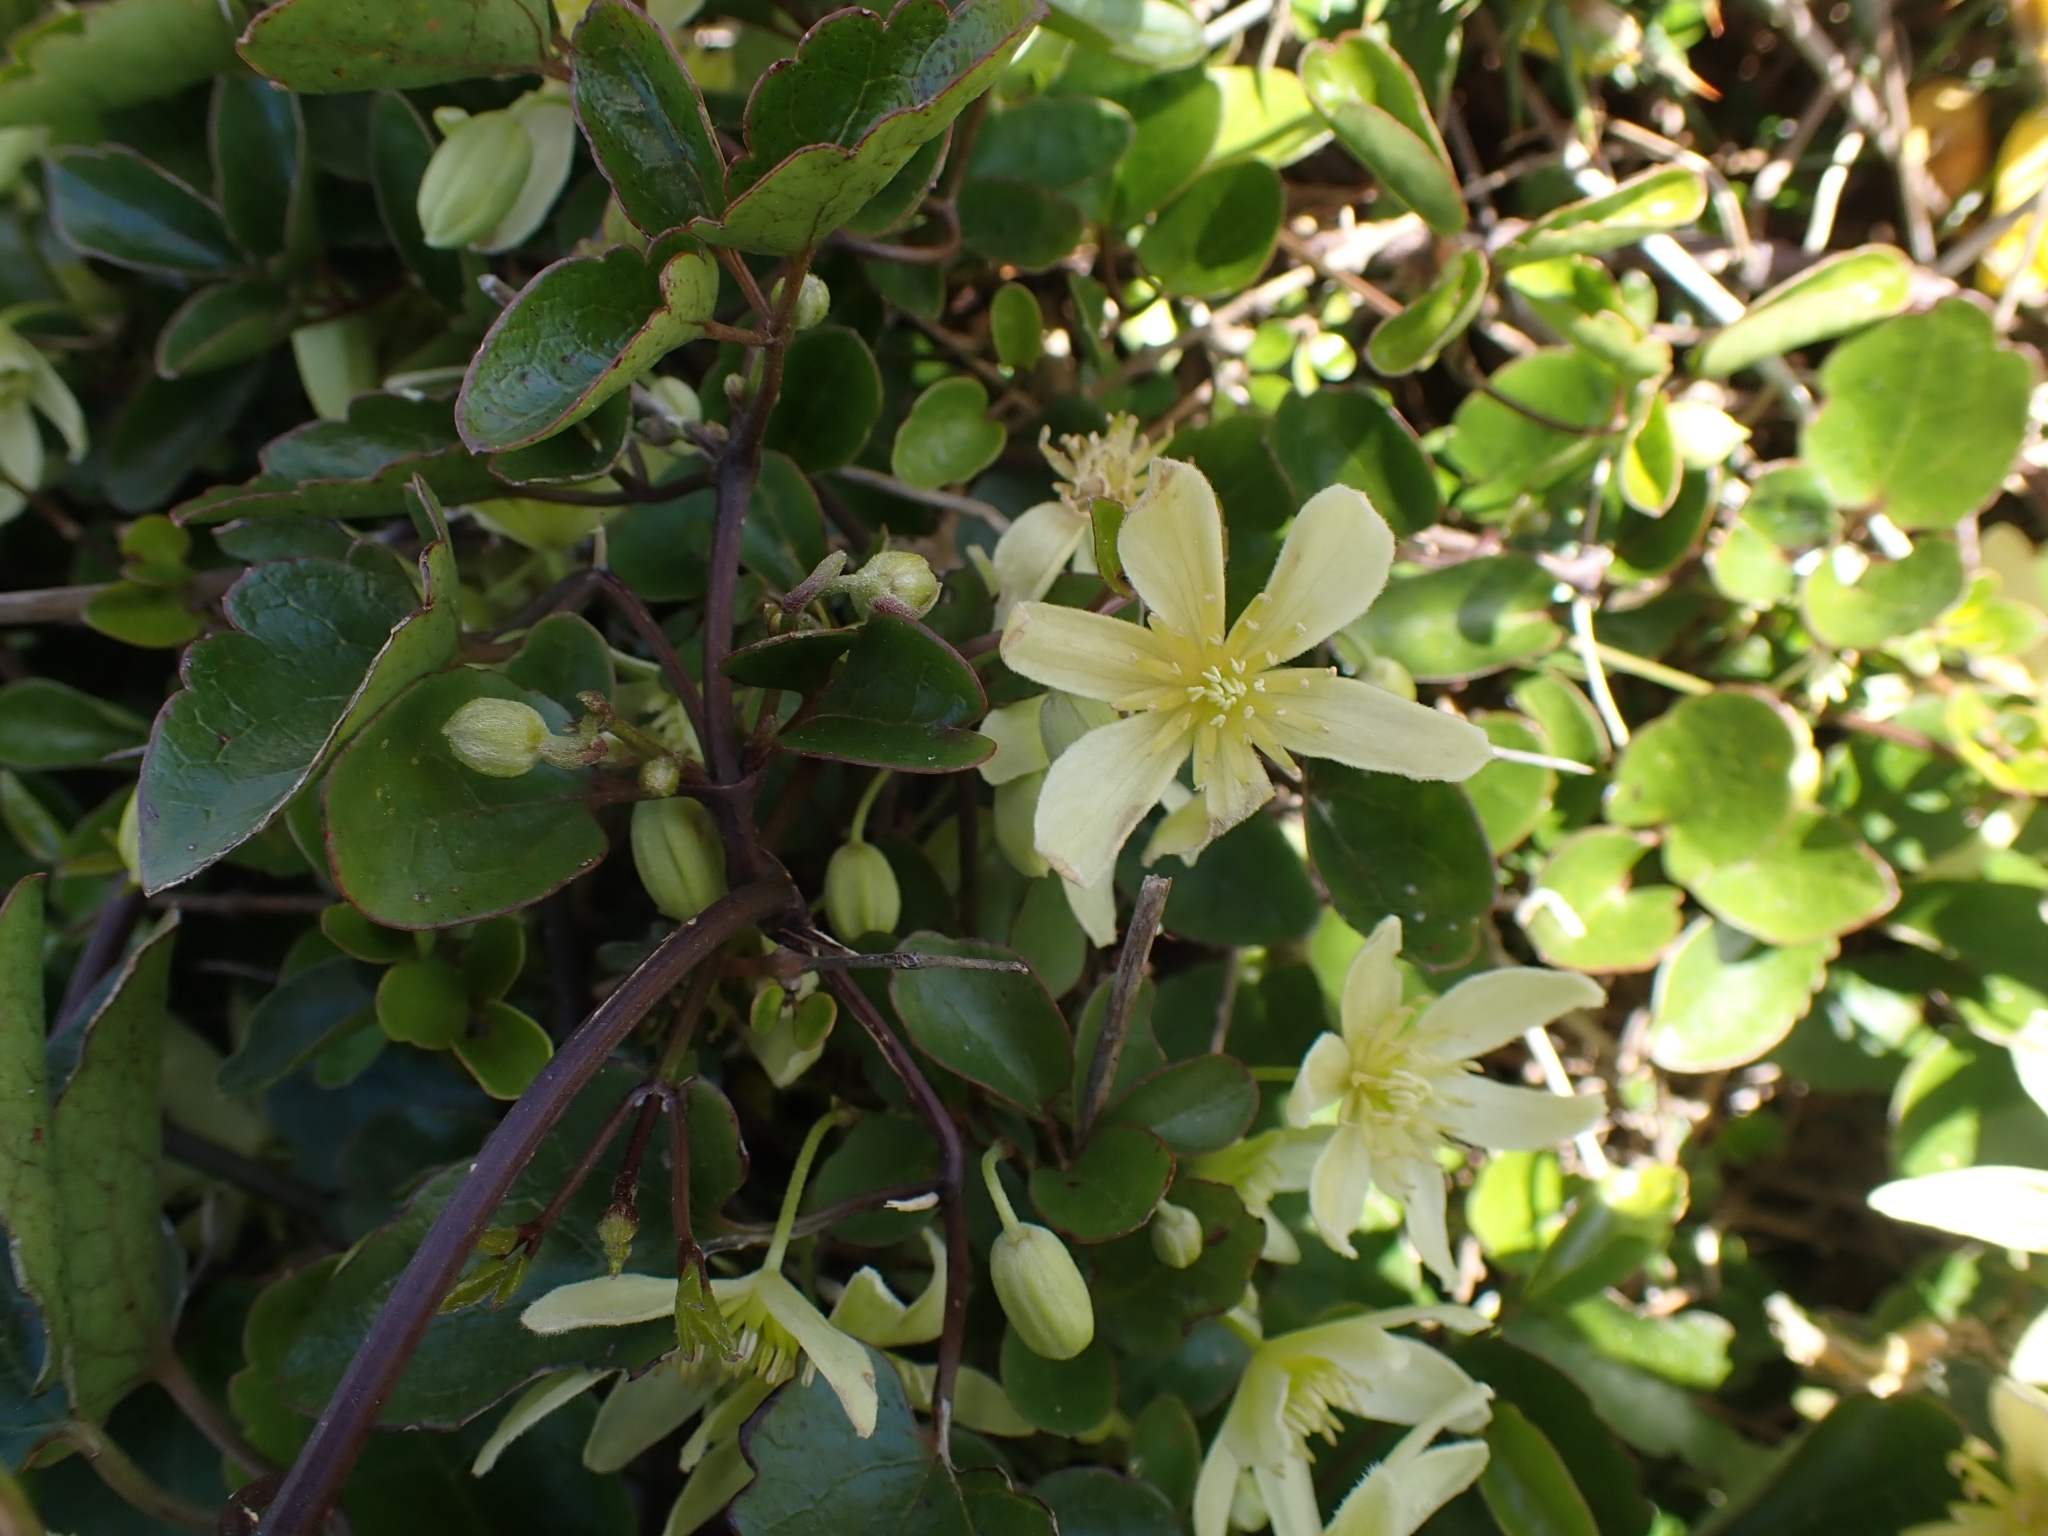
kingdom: Plantae
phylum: Tracheophyta
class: Magnoliopsida
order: Ranunculales
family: Ranunculaceae
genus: Clematis
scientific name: Clematis forsteri
